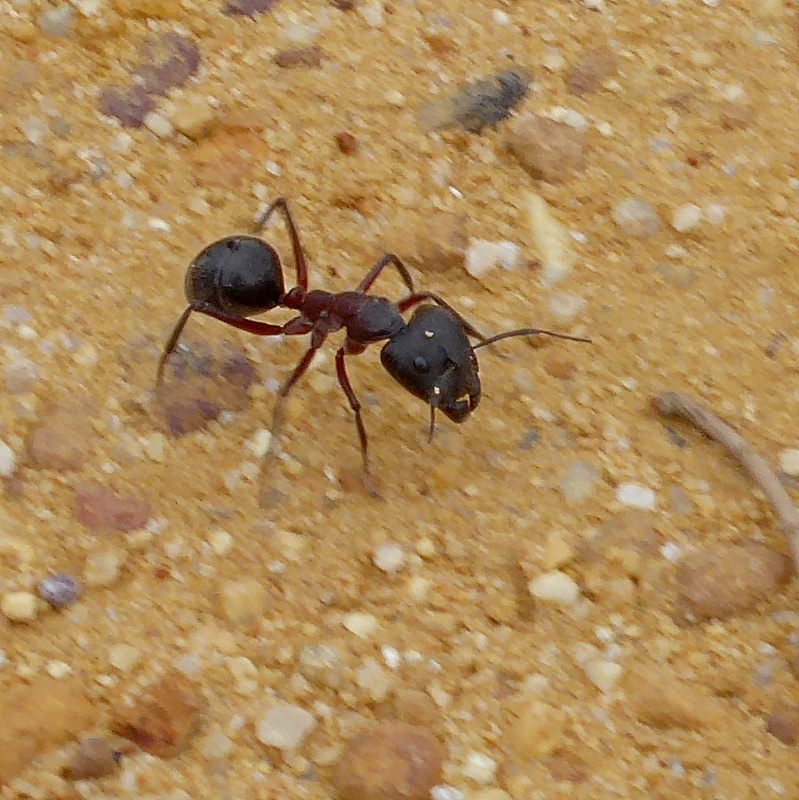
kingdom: Animalia
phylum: Arthropoda
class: Insecta
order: Hymenoptera
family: Formicidae
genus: Camponotus
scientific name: Camponotus intrepidus
